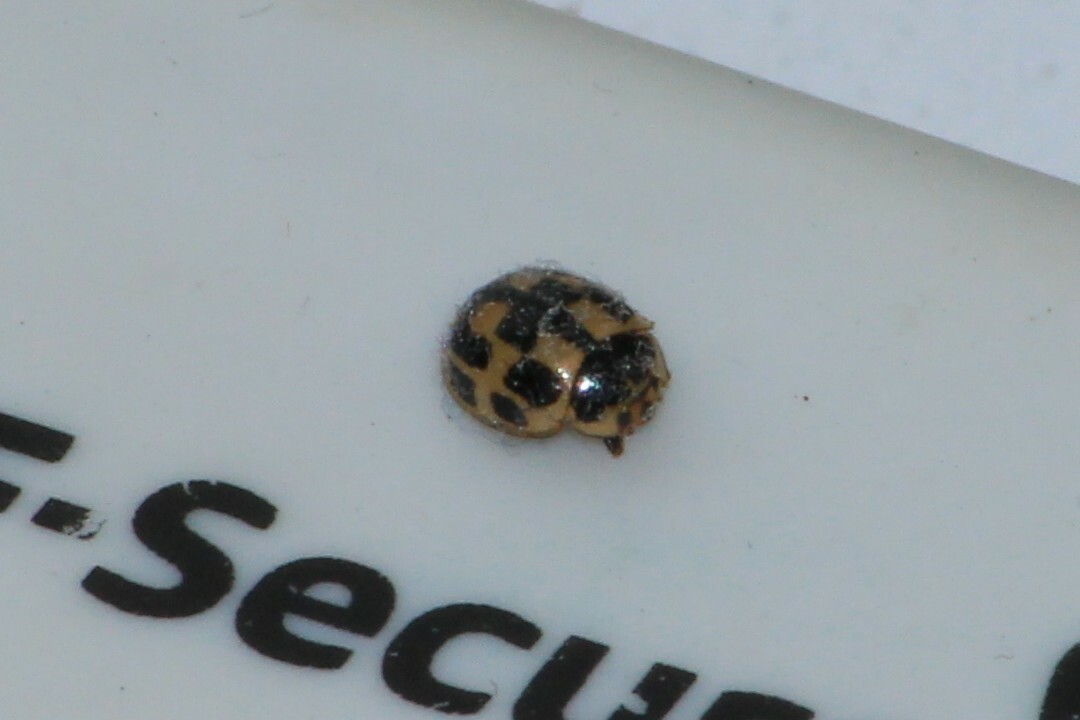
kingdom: Animalia
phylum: Arthropoda
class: Insecta
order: Coleoptera
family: Coccinellidae
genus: Propylaea
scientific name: Propylaea quatuordecimpunctata
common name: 14-spotted ladybird beetle
